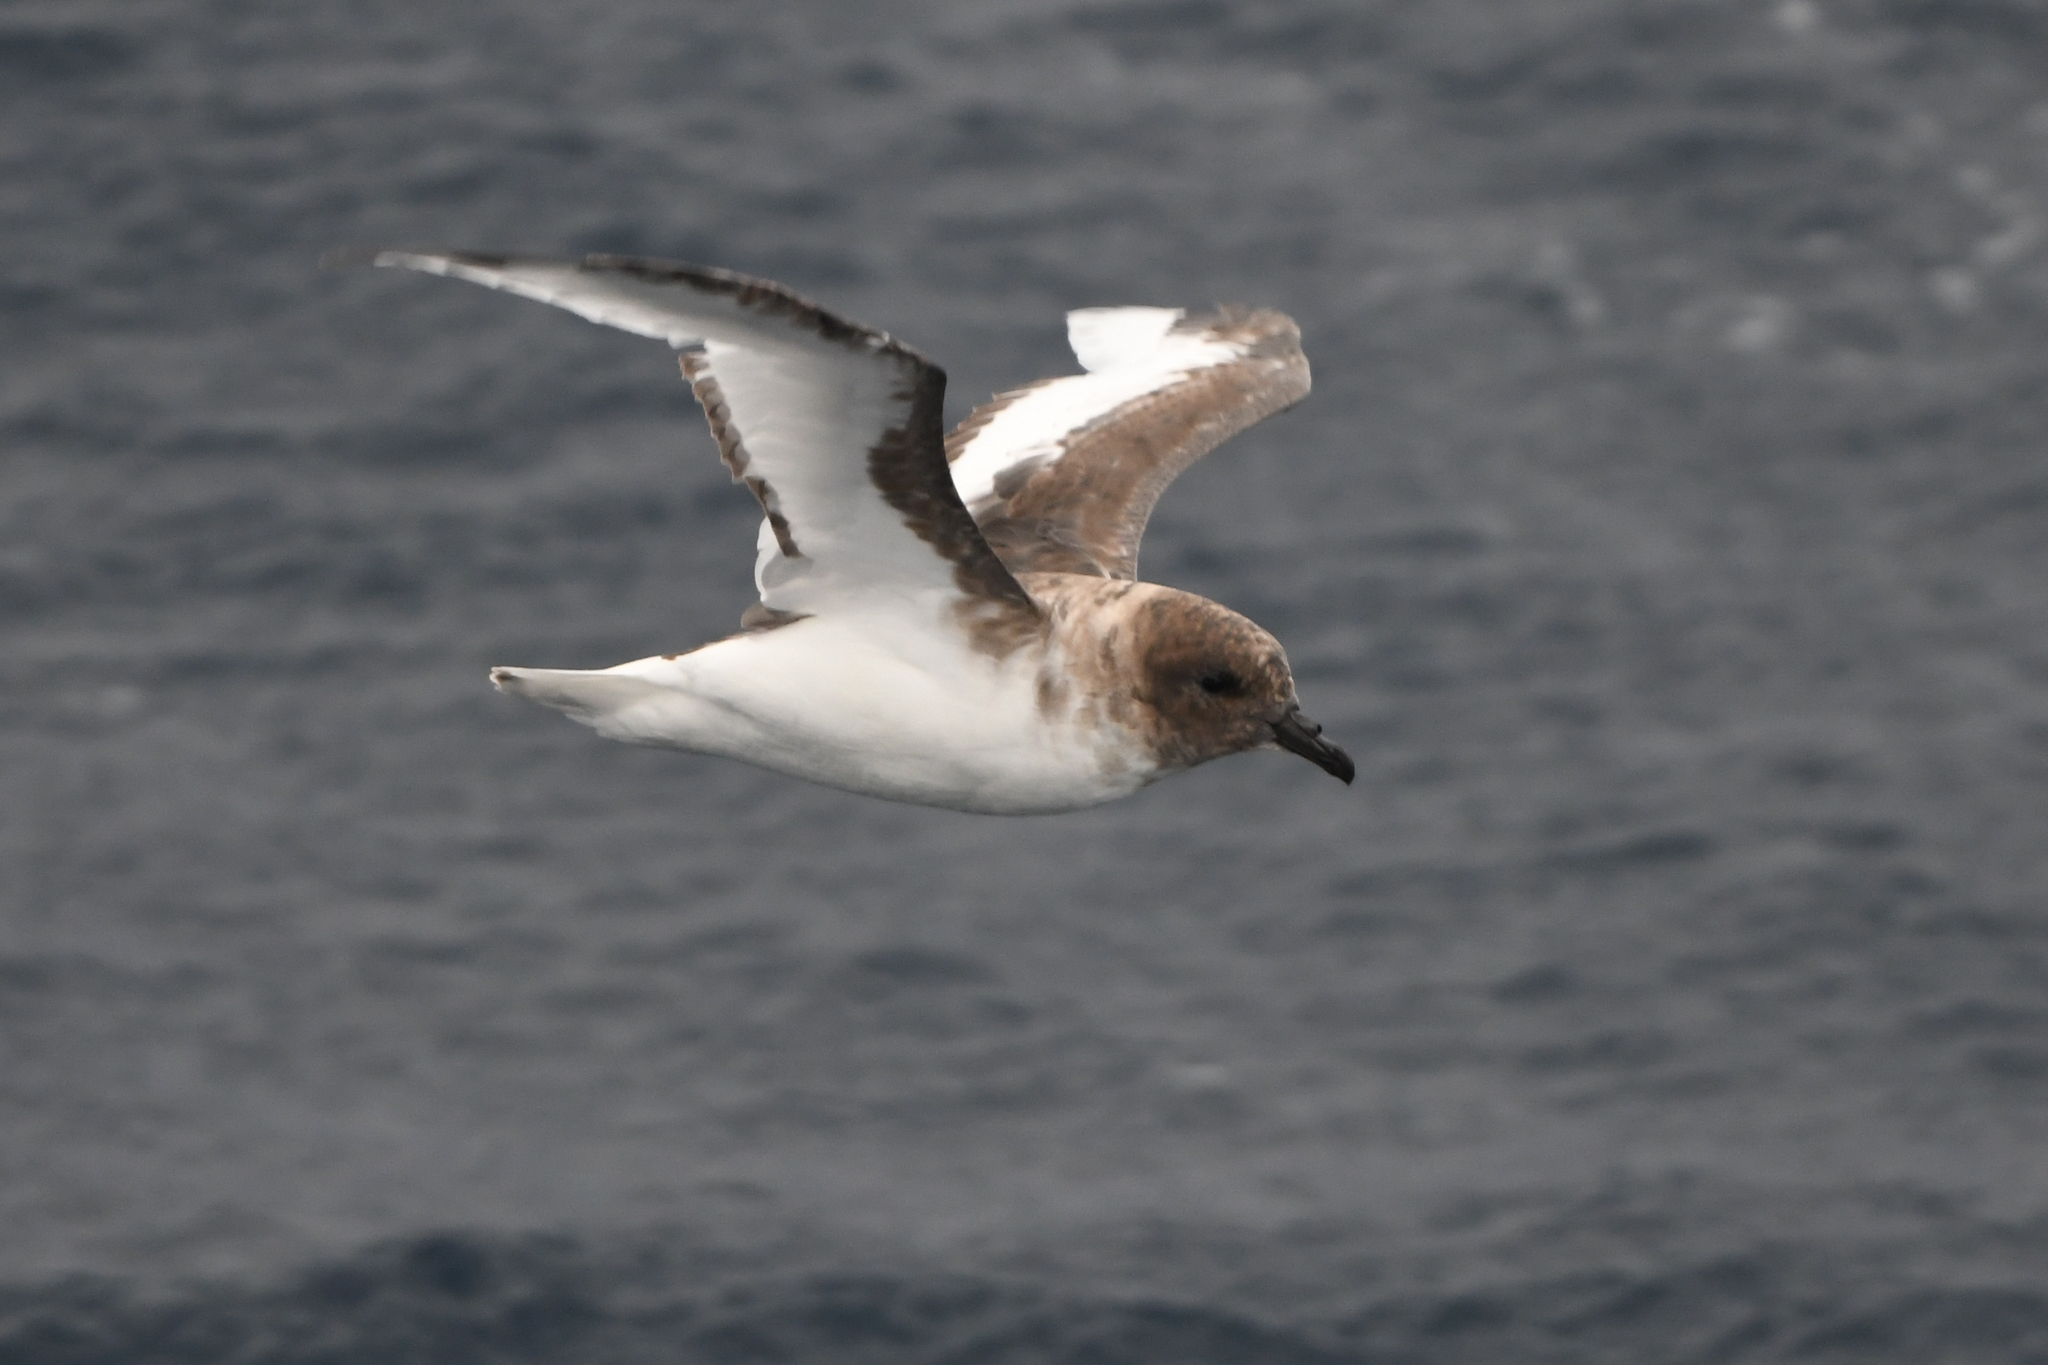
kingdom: Animalia
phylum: Chordata
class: Aves
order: Procellariiformes
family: Procellariidae
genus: Thalassoica
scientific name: Thalassoica antarctica
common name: Antarctic petrel
